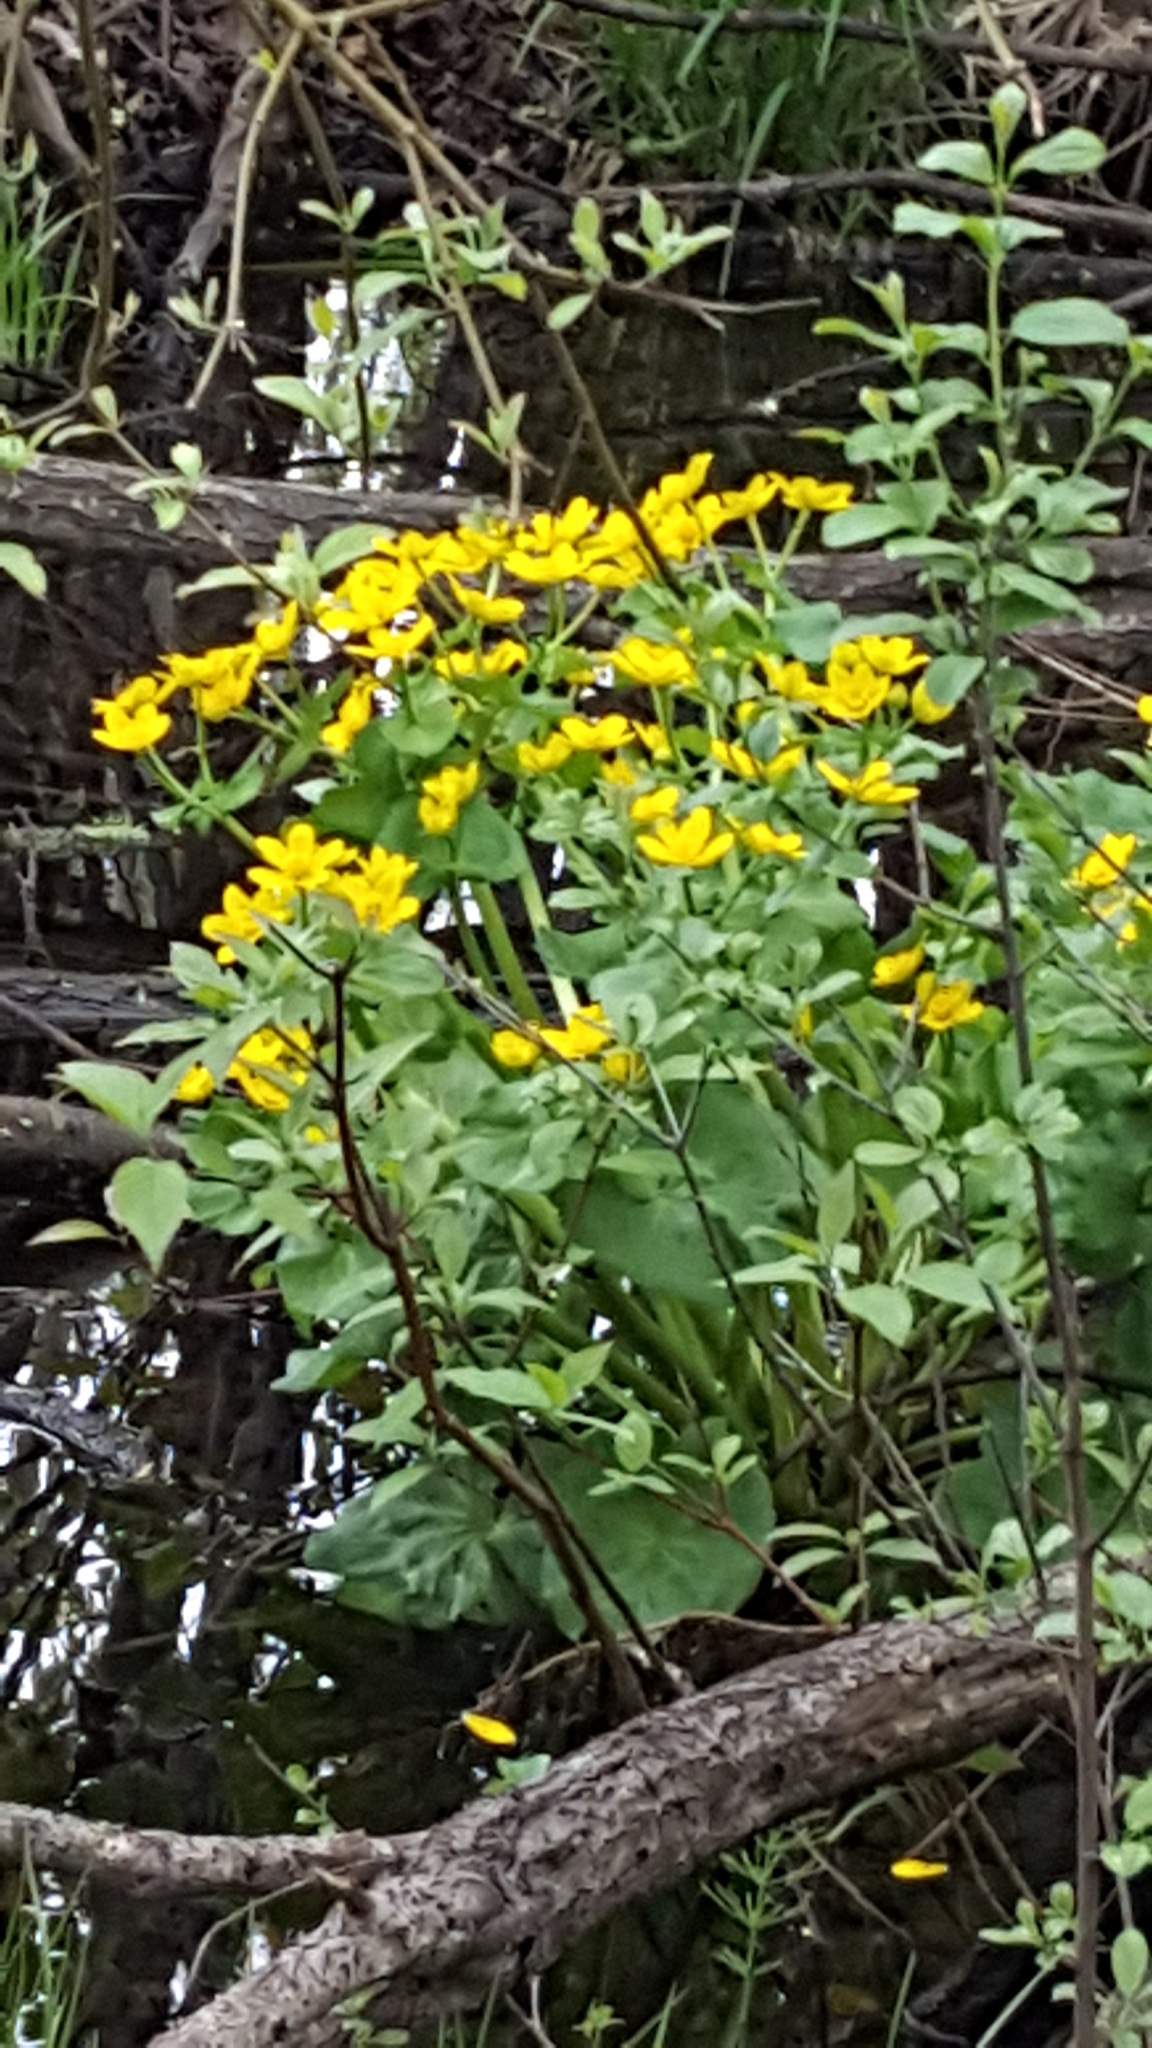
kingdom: Plantae
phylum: Tracheophyta
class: Magnoliopsida
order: Ranunculales
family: Ranunculaceae
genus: Caltha
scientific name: Caltha palustris
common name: Marsh marigold
